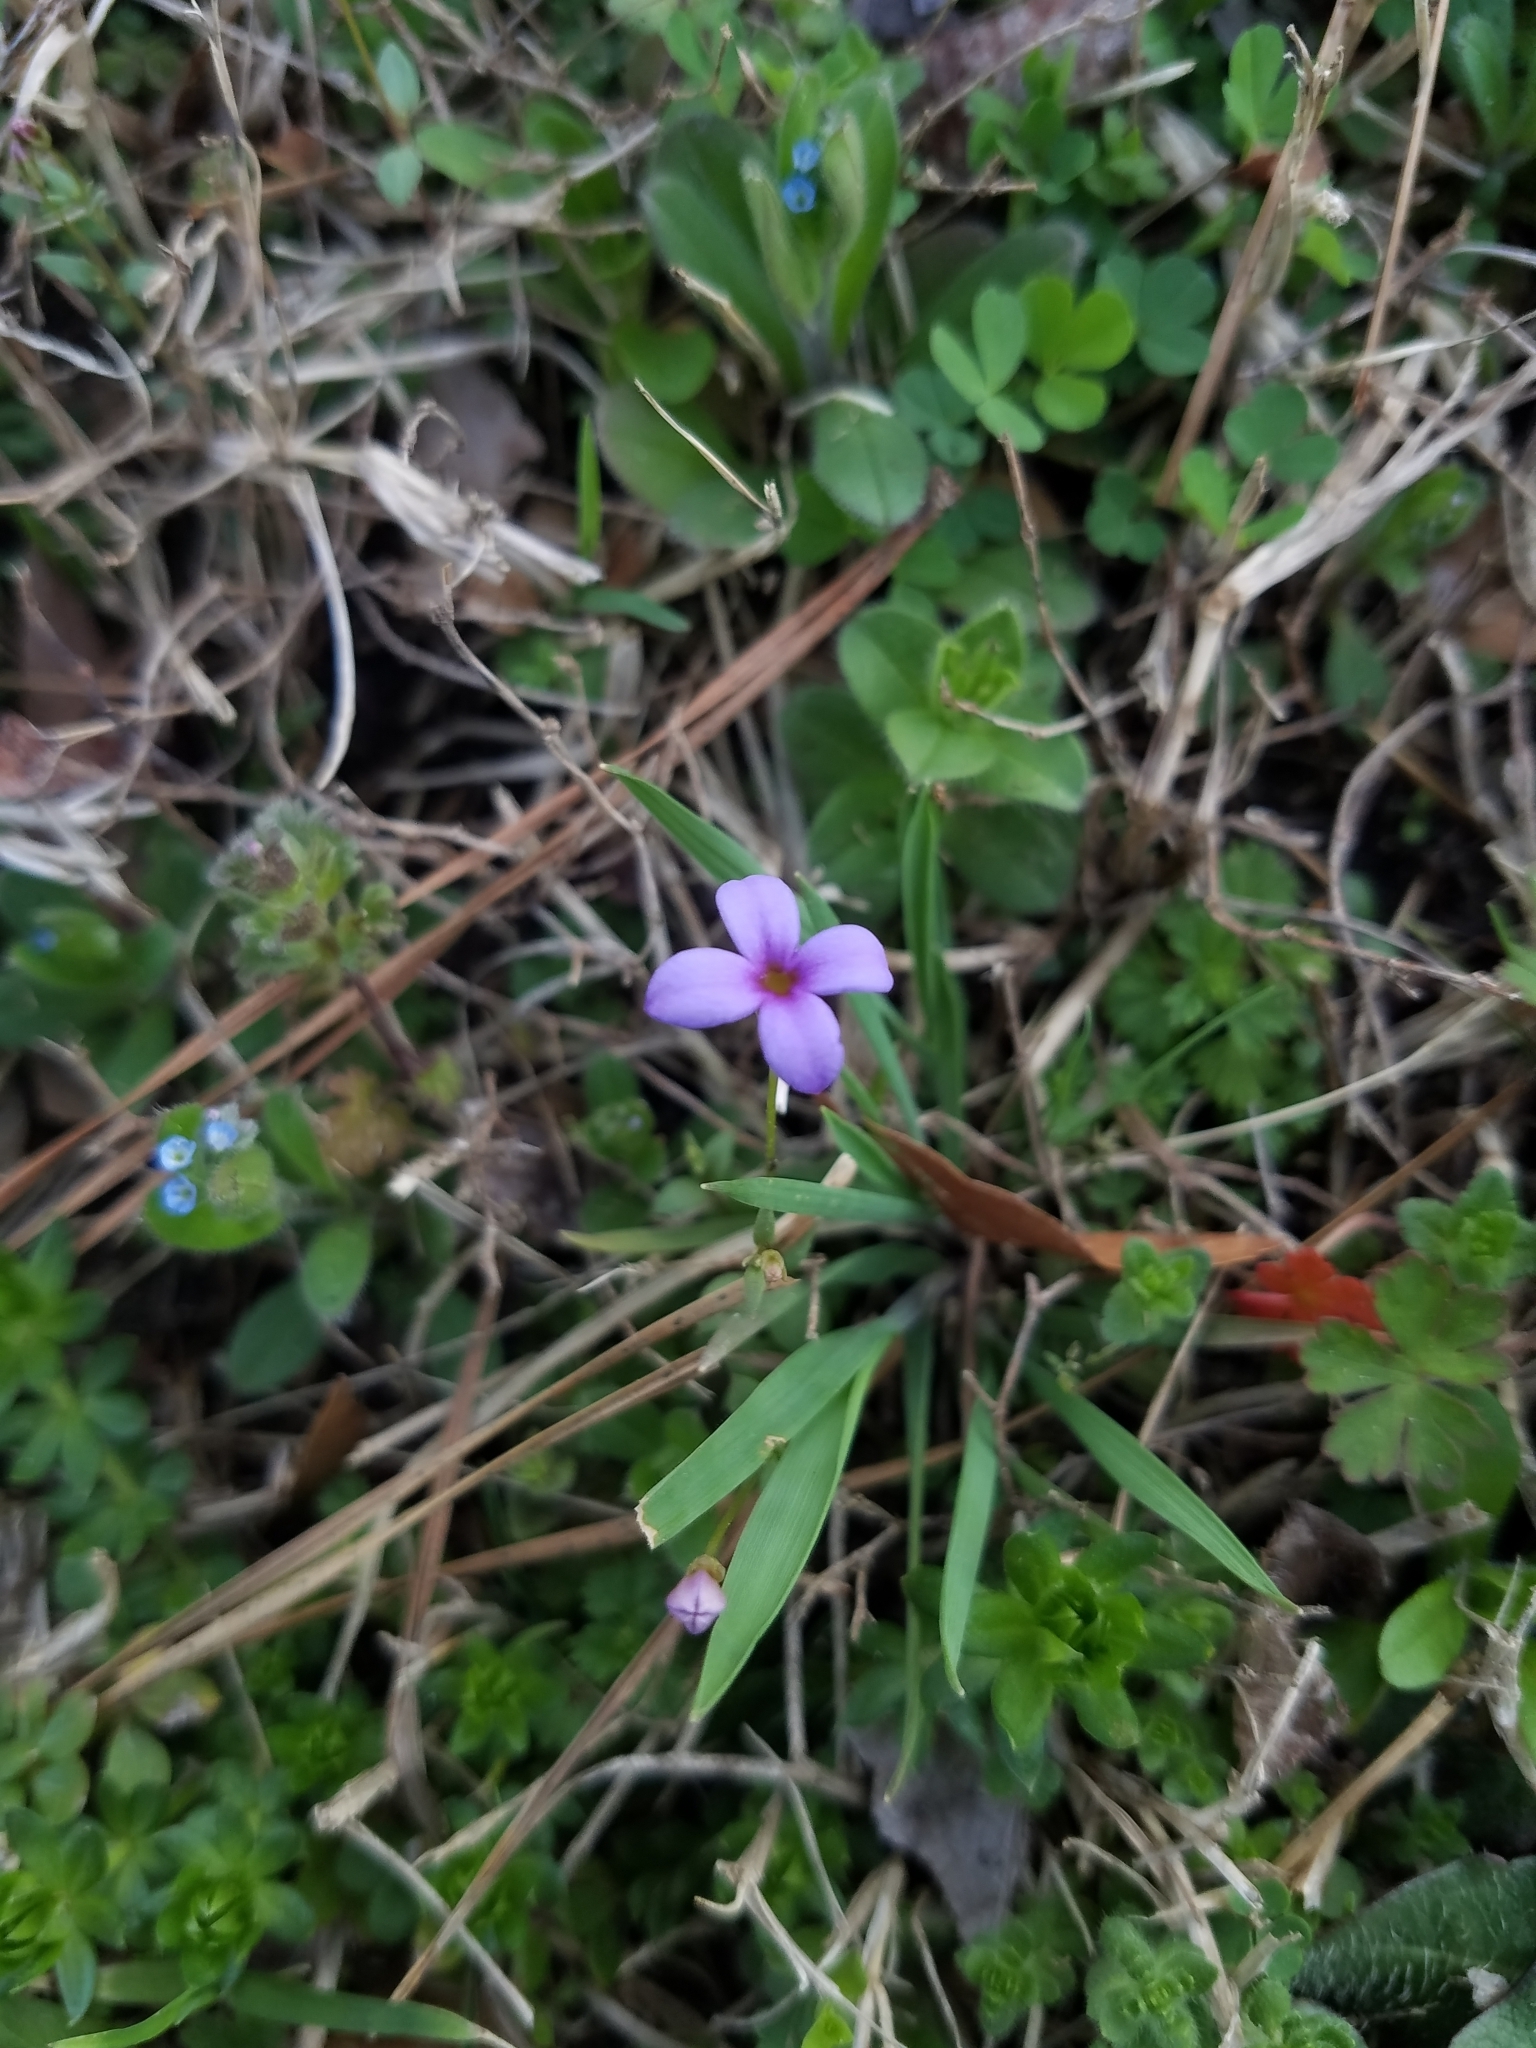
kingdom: Plantae
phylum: Tracheophyta
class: Magnoliopsida
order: Gentianales
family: Rubiaceae
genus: Houstonia
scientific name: Houstonia pusilla
